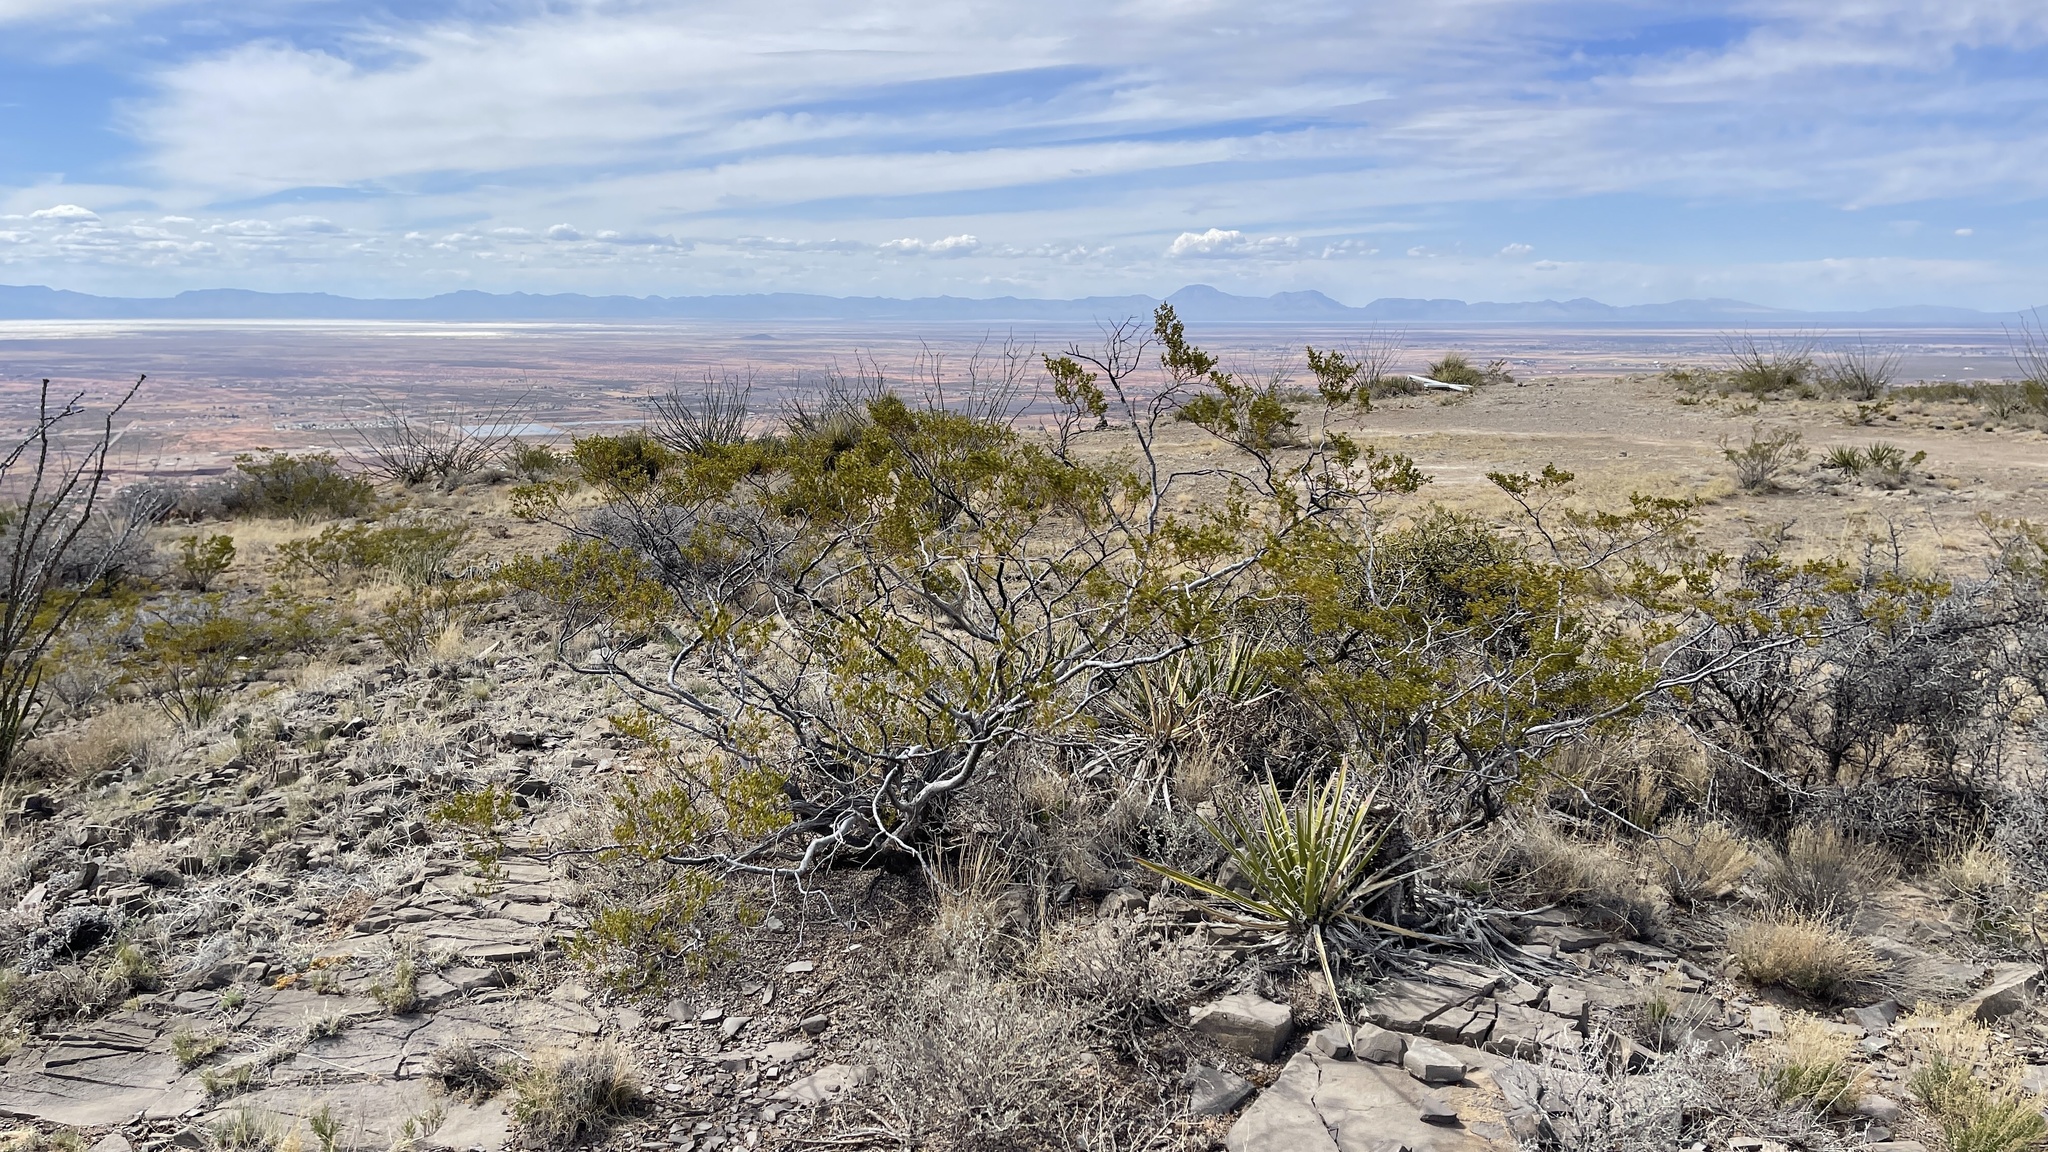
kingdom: Plantae
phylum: Tracheophyta
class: Magnoliopsida
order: Zygophyllales
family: Zygophyllaceae
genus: Larrea
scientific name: Larrea tridentata
